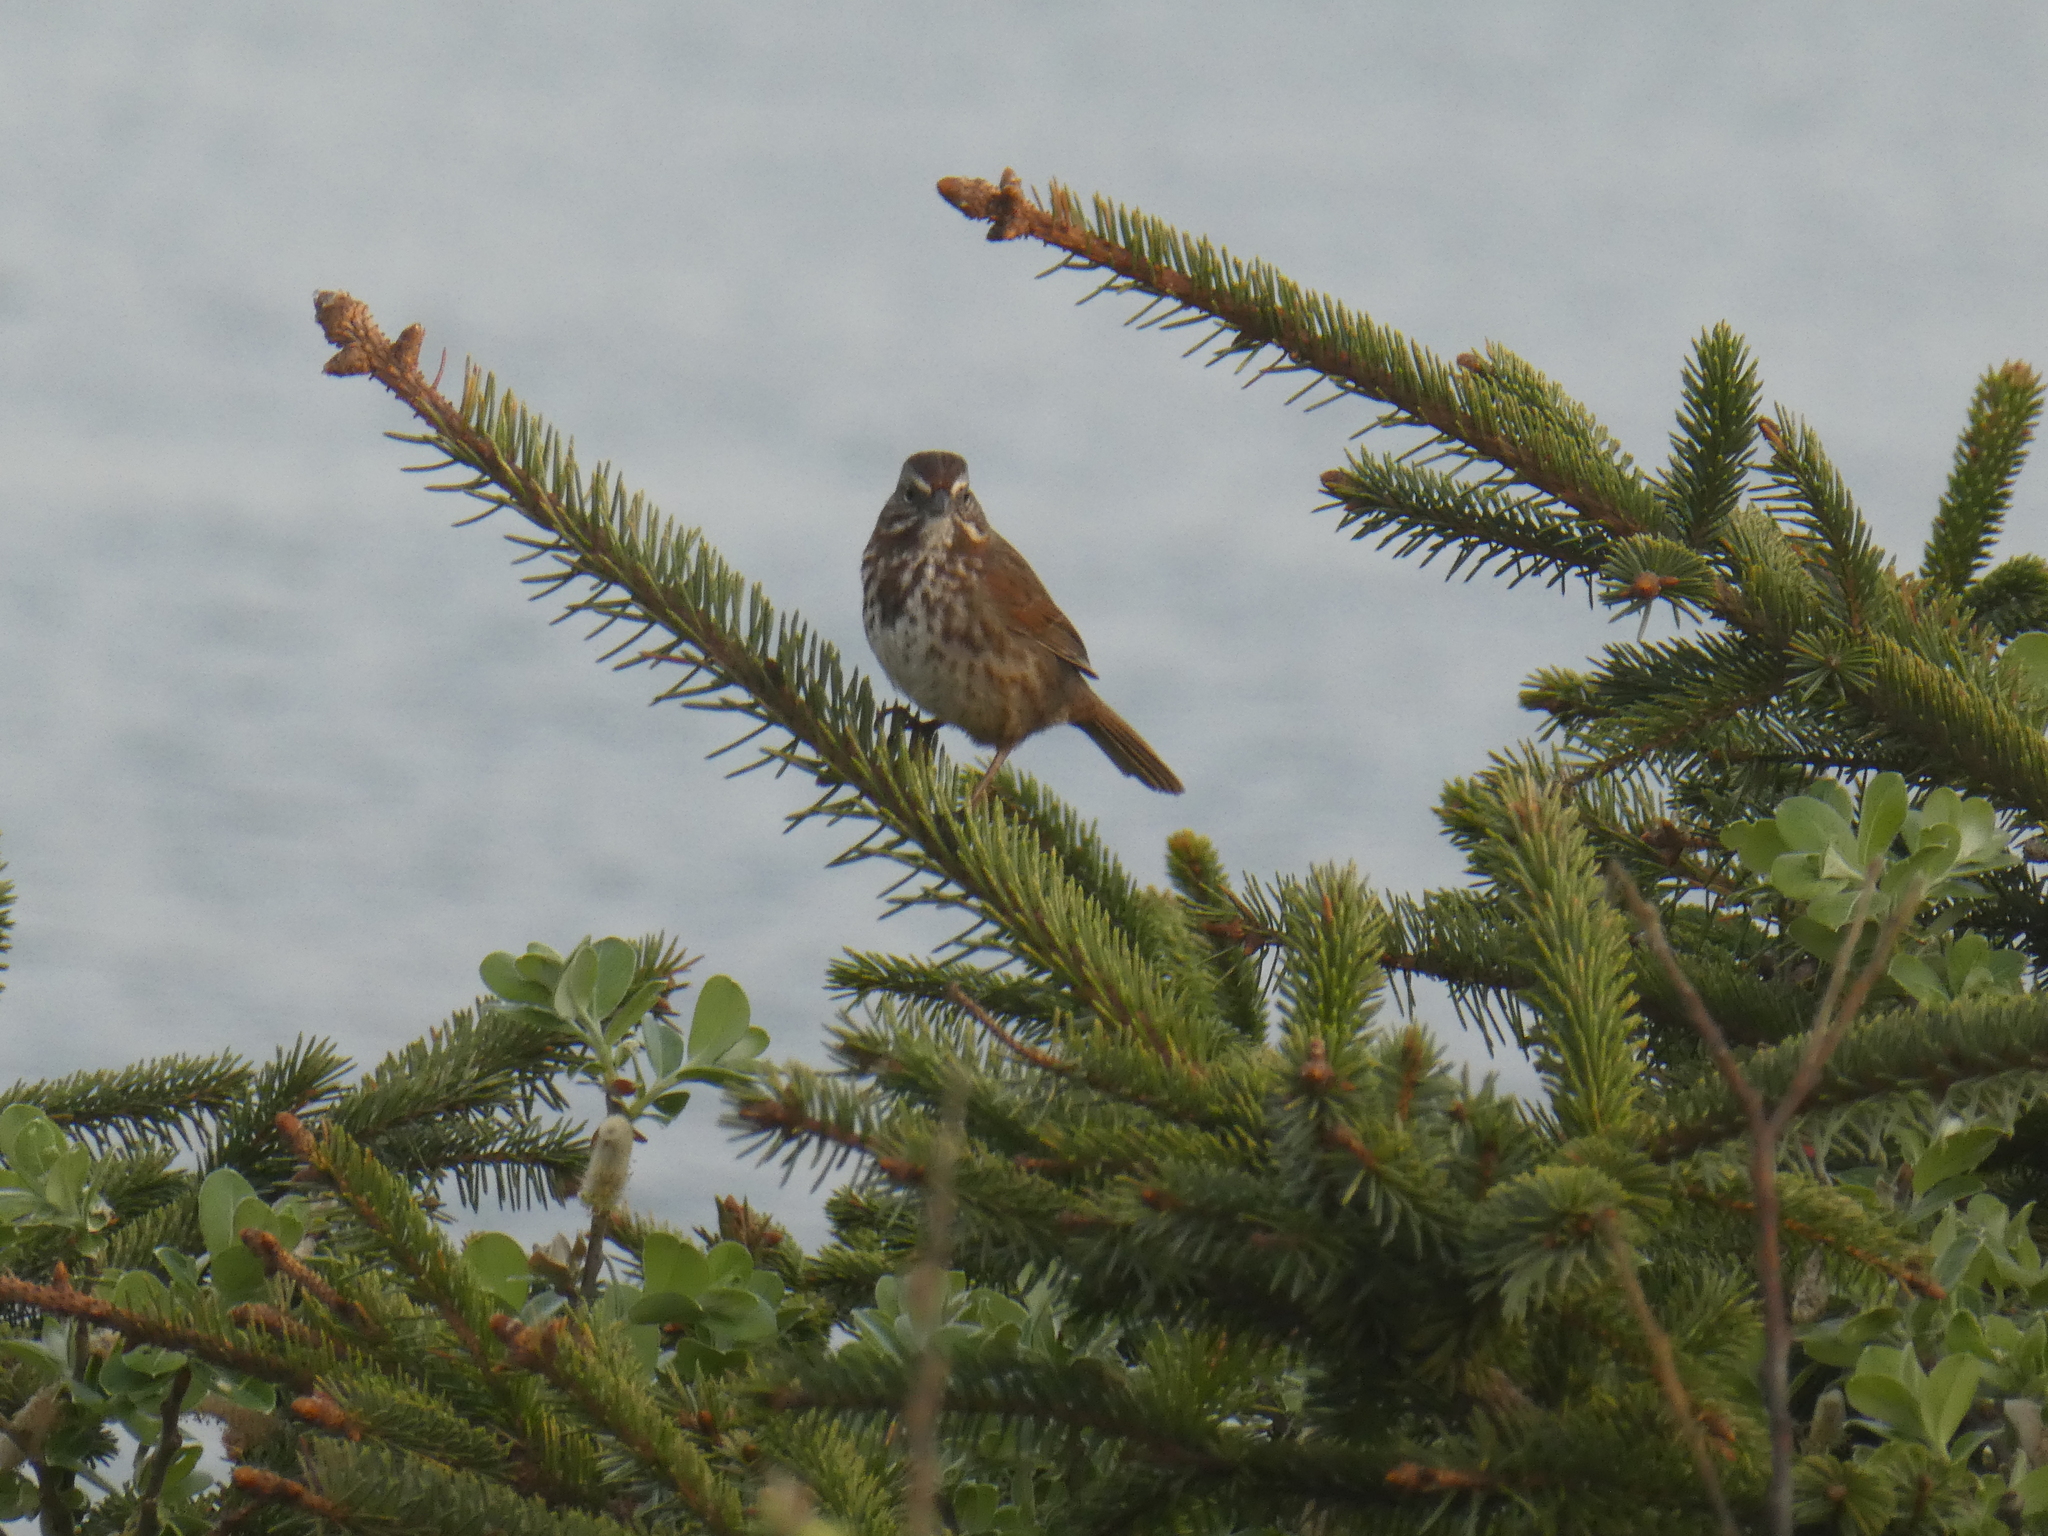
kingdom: Animalia
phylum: Chordata
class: Aves
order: Passeriformes
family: Passerellidae
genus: Melospiza
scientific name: Melospiza melodia
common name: Song sparrow
